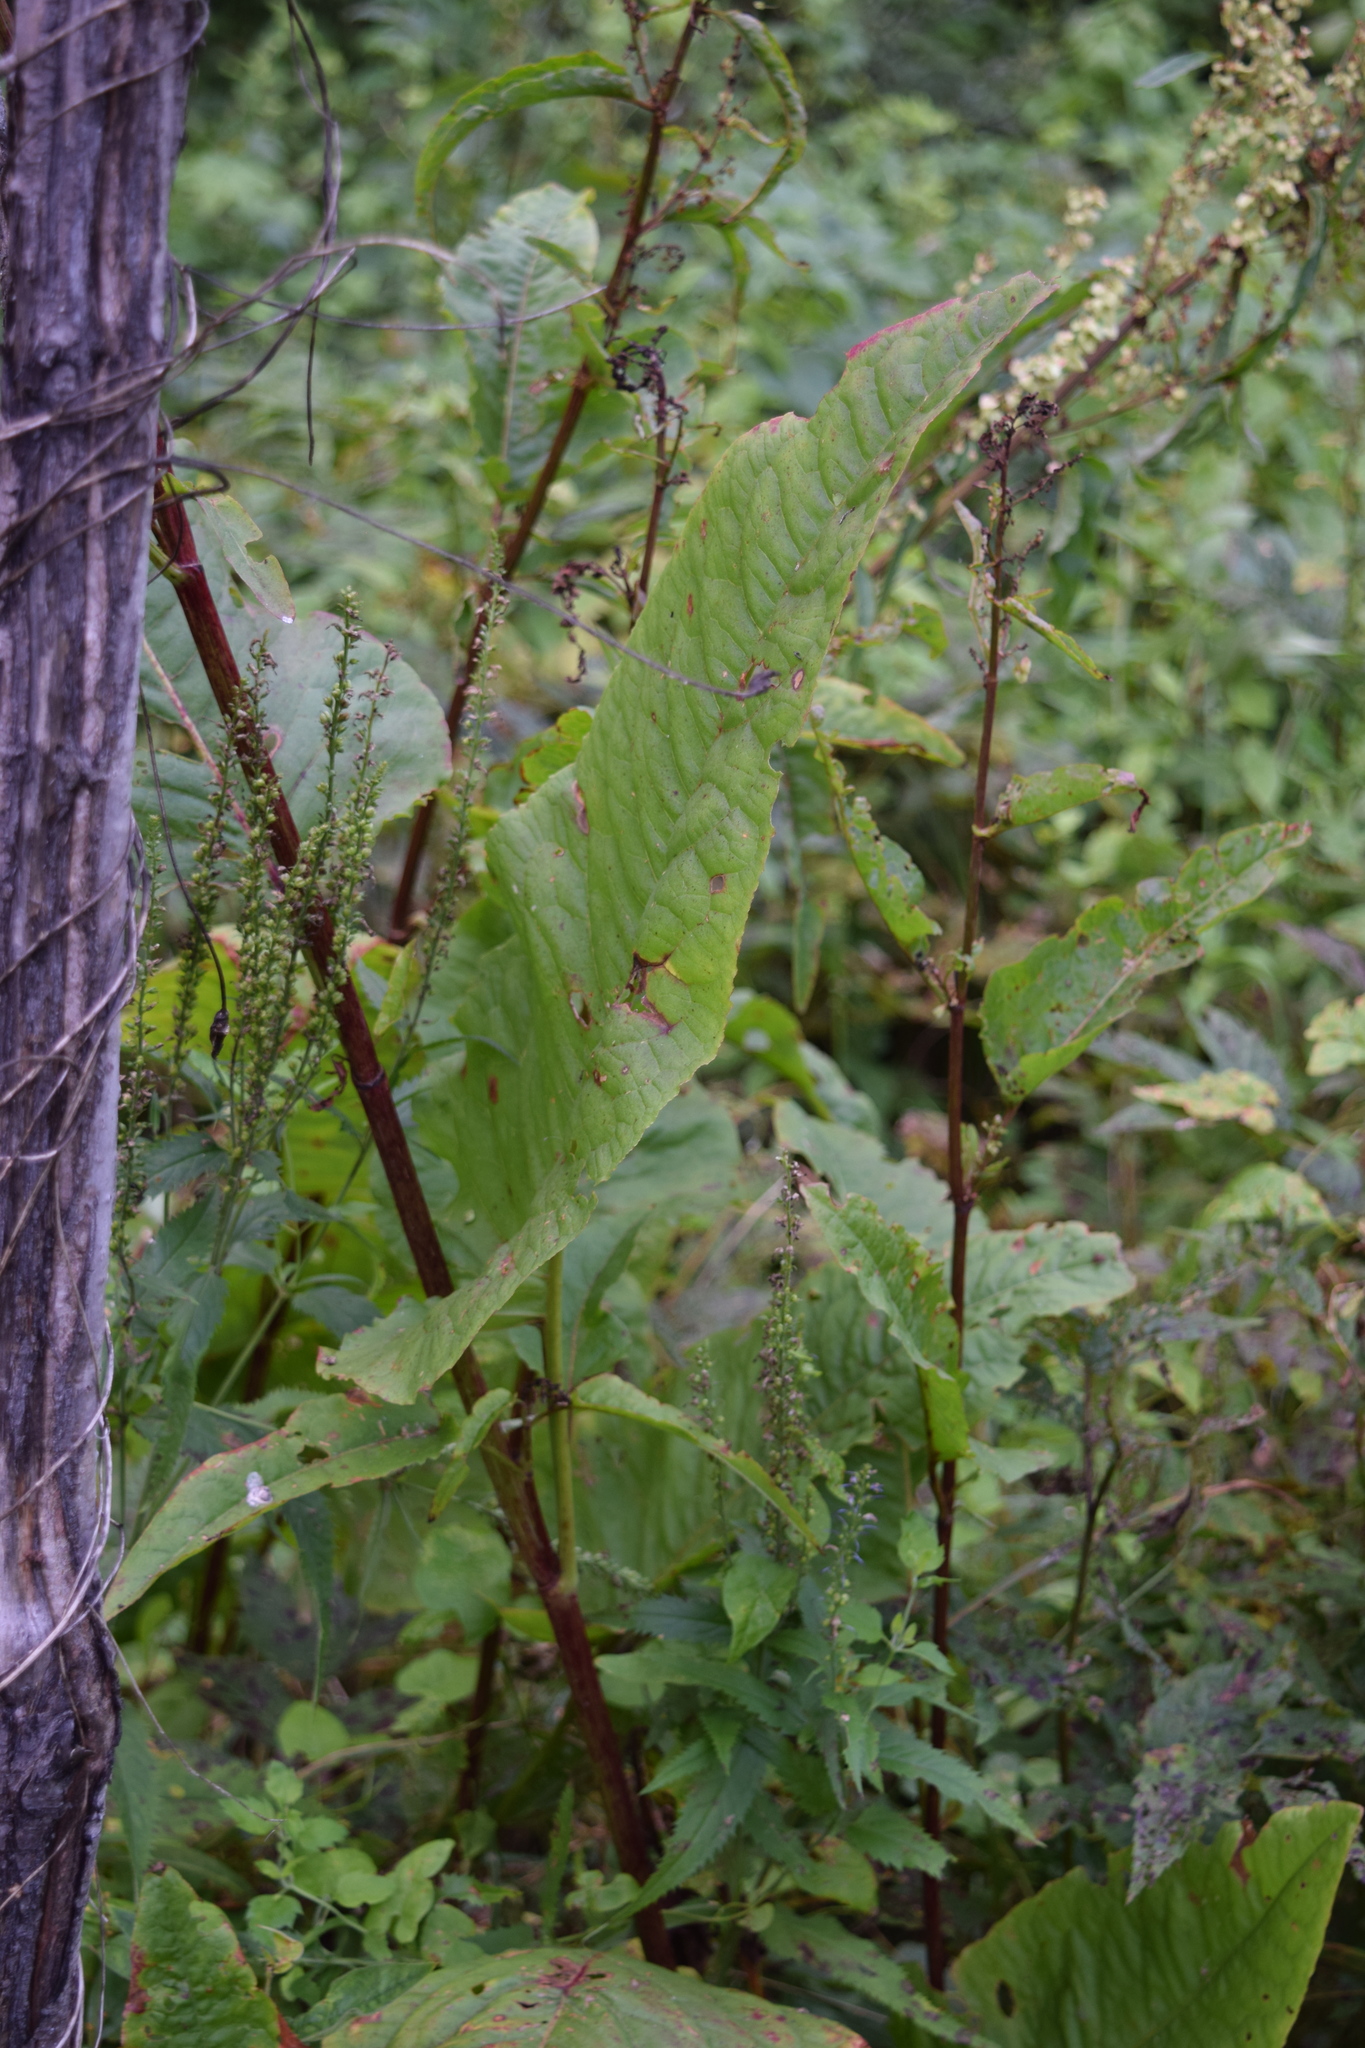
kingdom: Plantae
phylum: Tracheophyta
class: Magnoliopsida
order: Caryophyllales
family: Polygonaceae
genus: Rumex
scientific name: Rumex aquaticus
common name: Scottish dock
